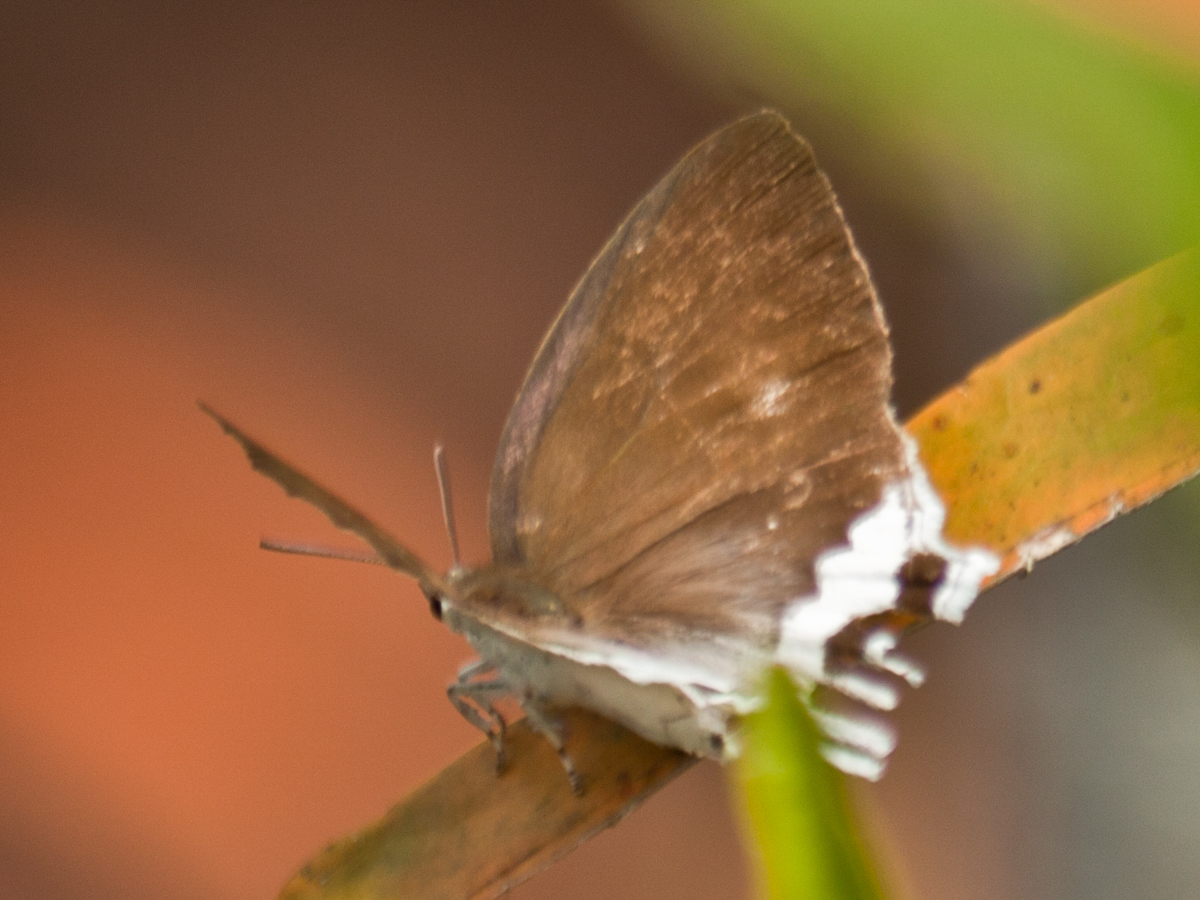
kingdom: Animalia
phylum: Arthropoda
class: Insecta
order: Lepidoptera
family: Lycaenidae
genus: Cheritra
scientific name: Cheritra freja
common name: Common imperial
